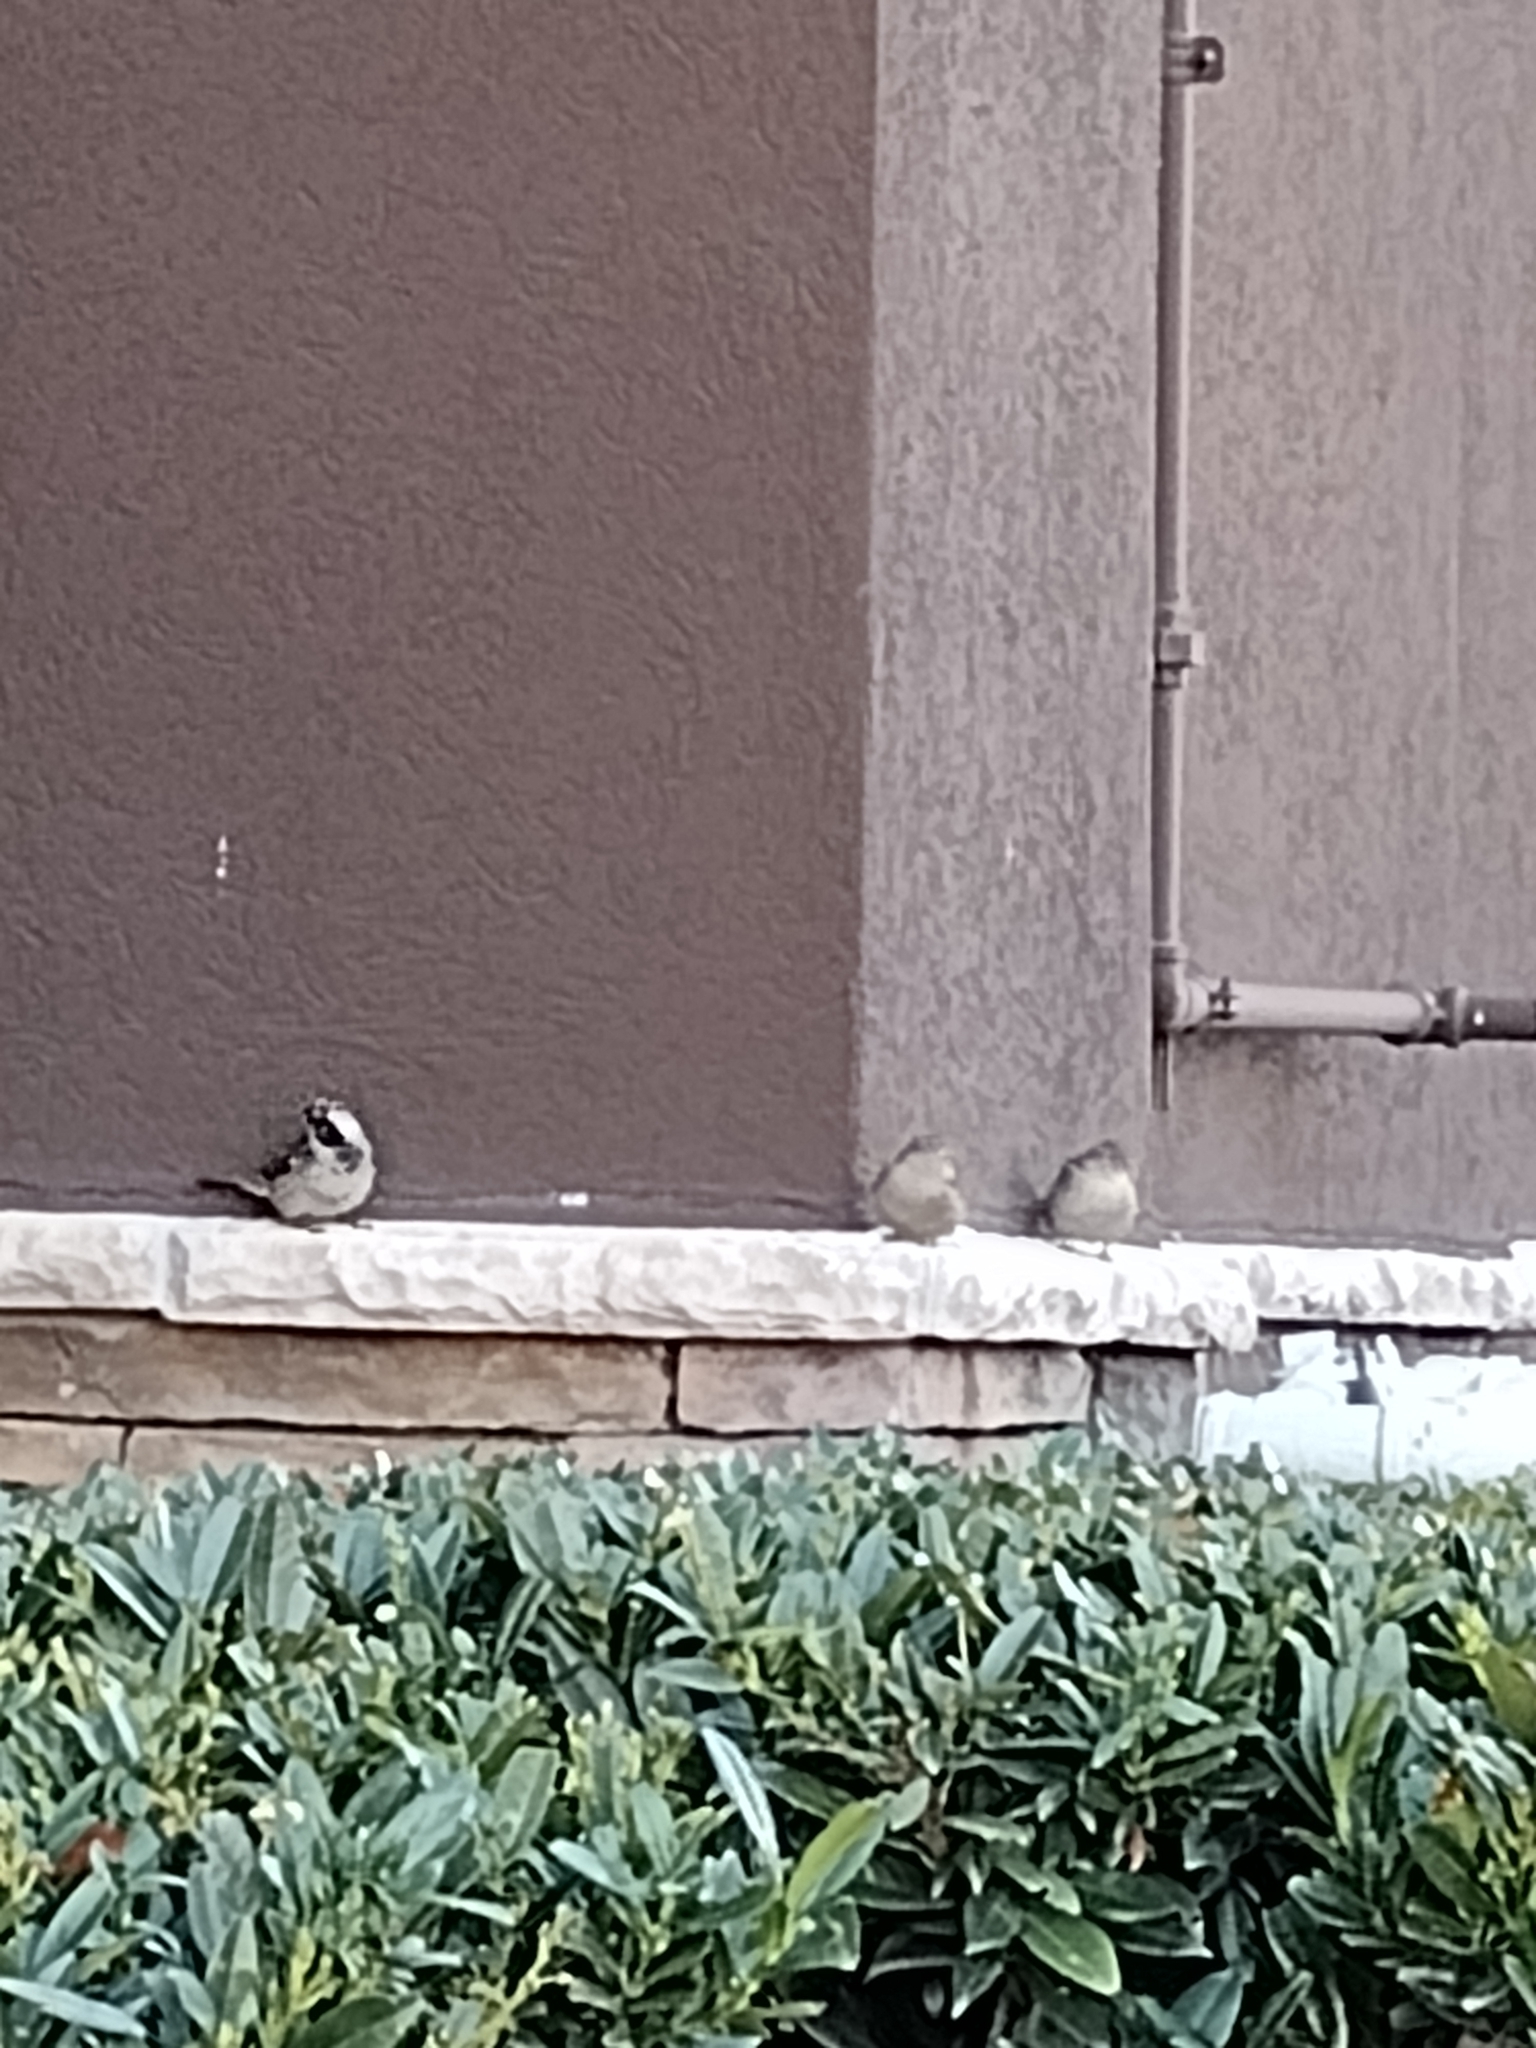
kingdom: Animalia
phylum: Chordata
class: Aves
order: Passeriformes
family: Passeridae
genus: Passer
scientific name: Passer domesticus
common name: House sparrow
